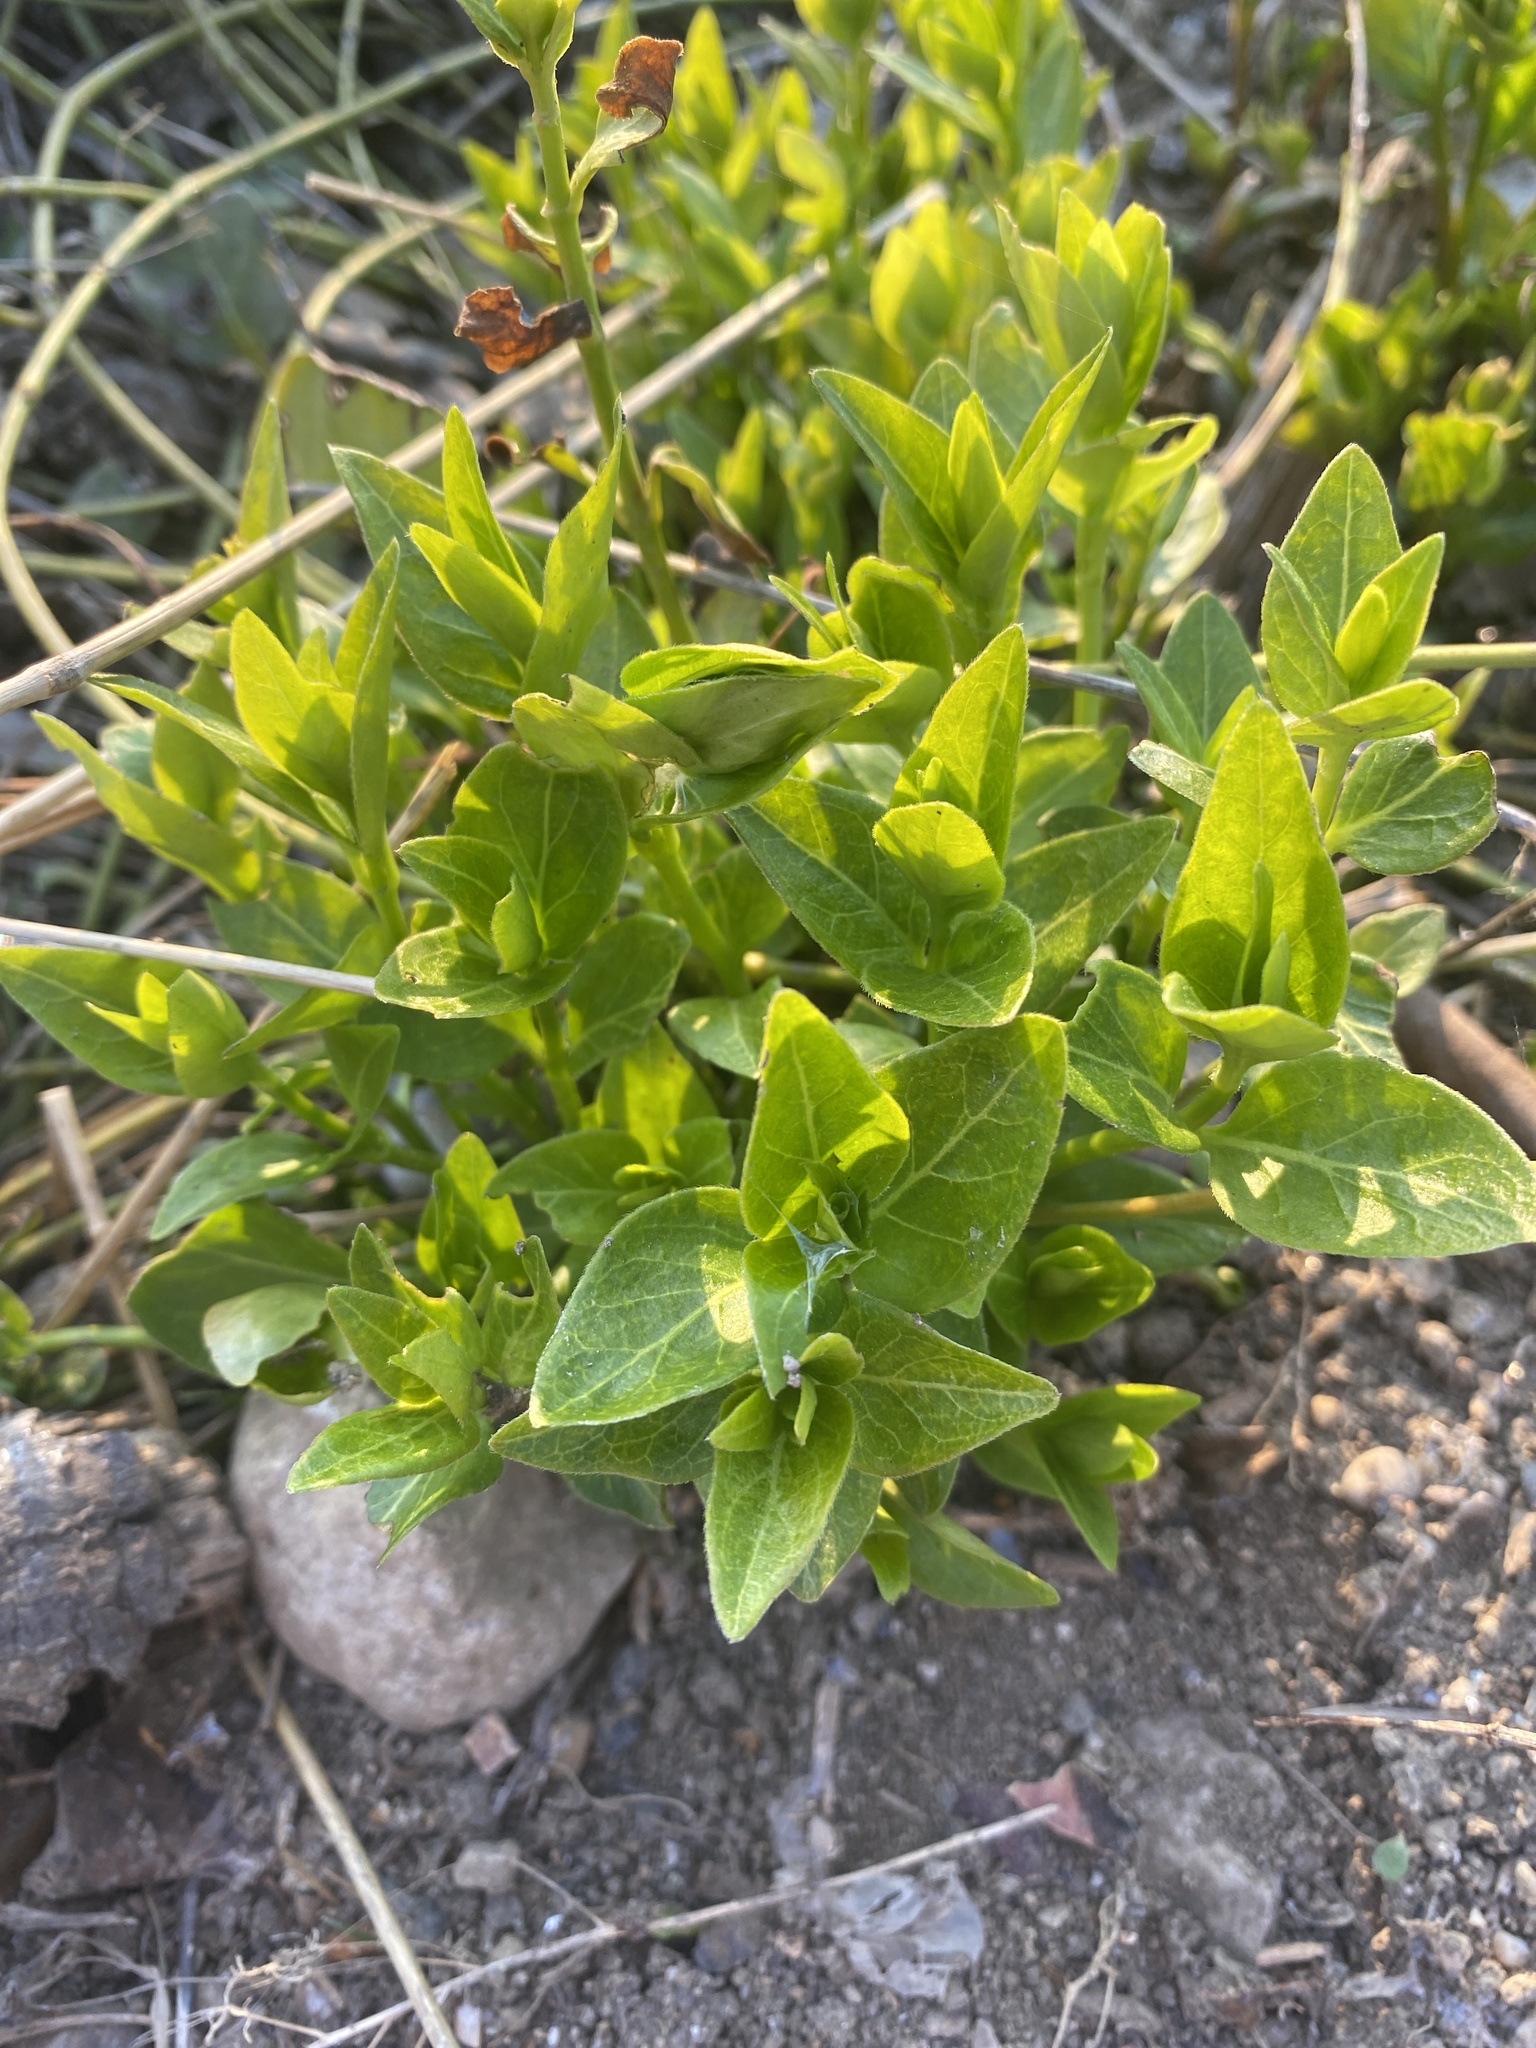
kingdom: Plantae
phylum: Tracheophyta
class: Magnoliopsida
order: Gentianales
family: Apocynaceae
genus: Vinca
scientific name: Vinca major
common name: Greater periwinkle
